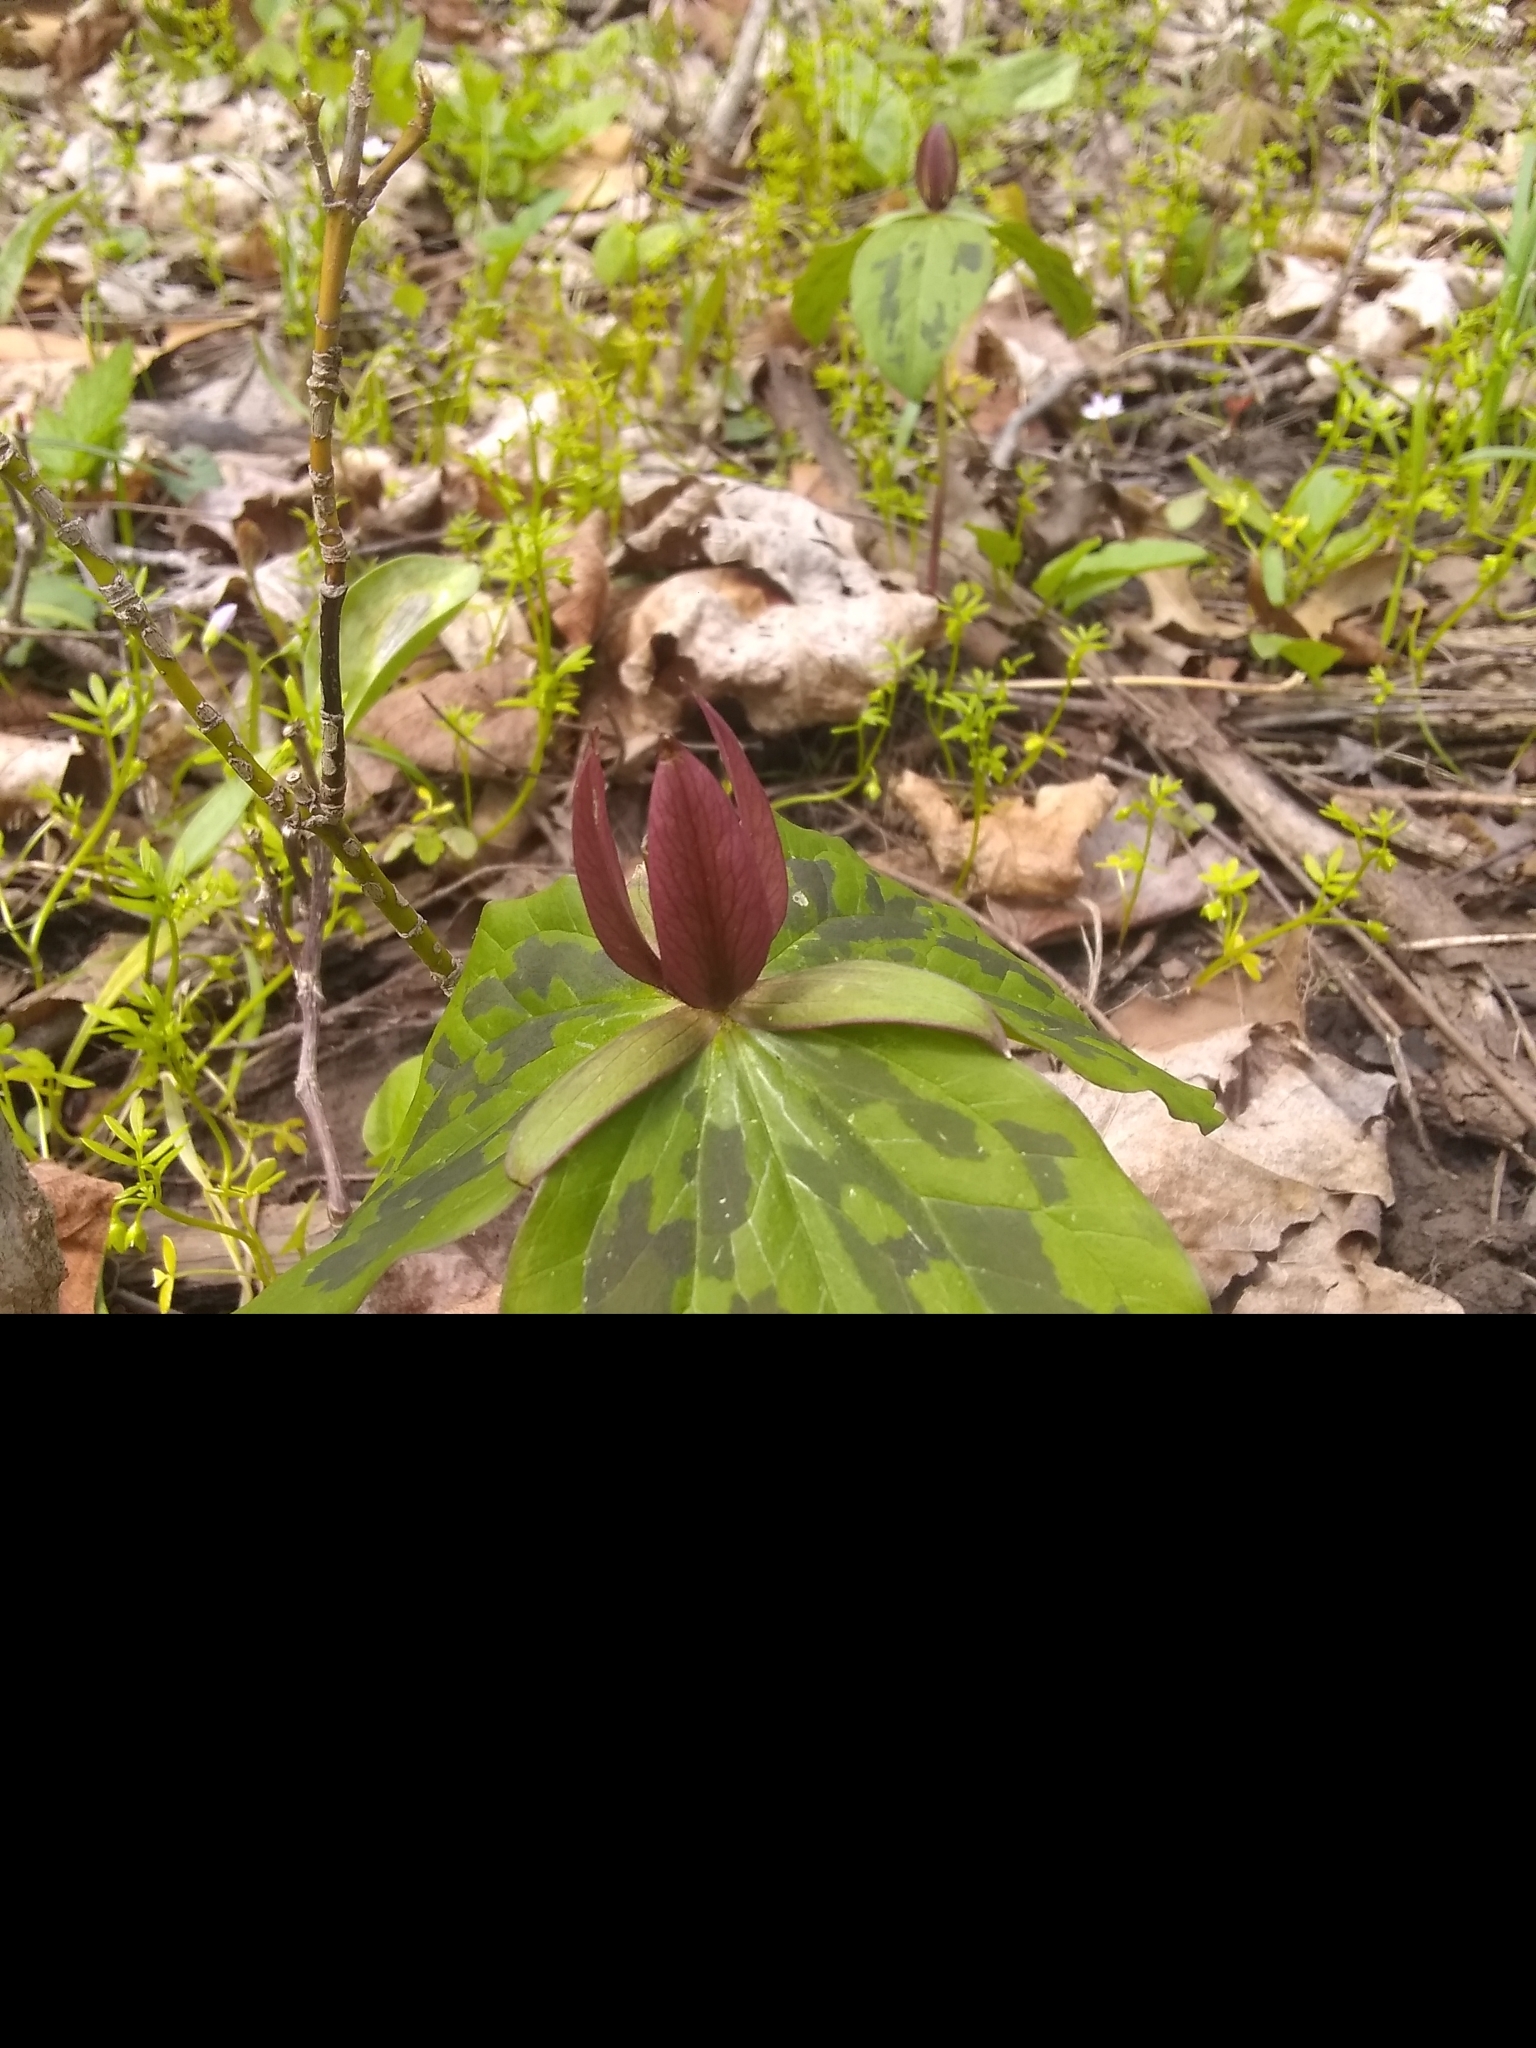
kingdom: Plantae
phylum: Tracheophyta
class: Liliopsida
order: Liliales
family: Melanthiaceae
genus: Trillium
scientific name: Trillium sessile
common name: Sessile trillium
